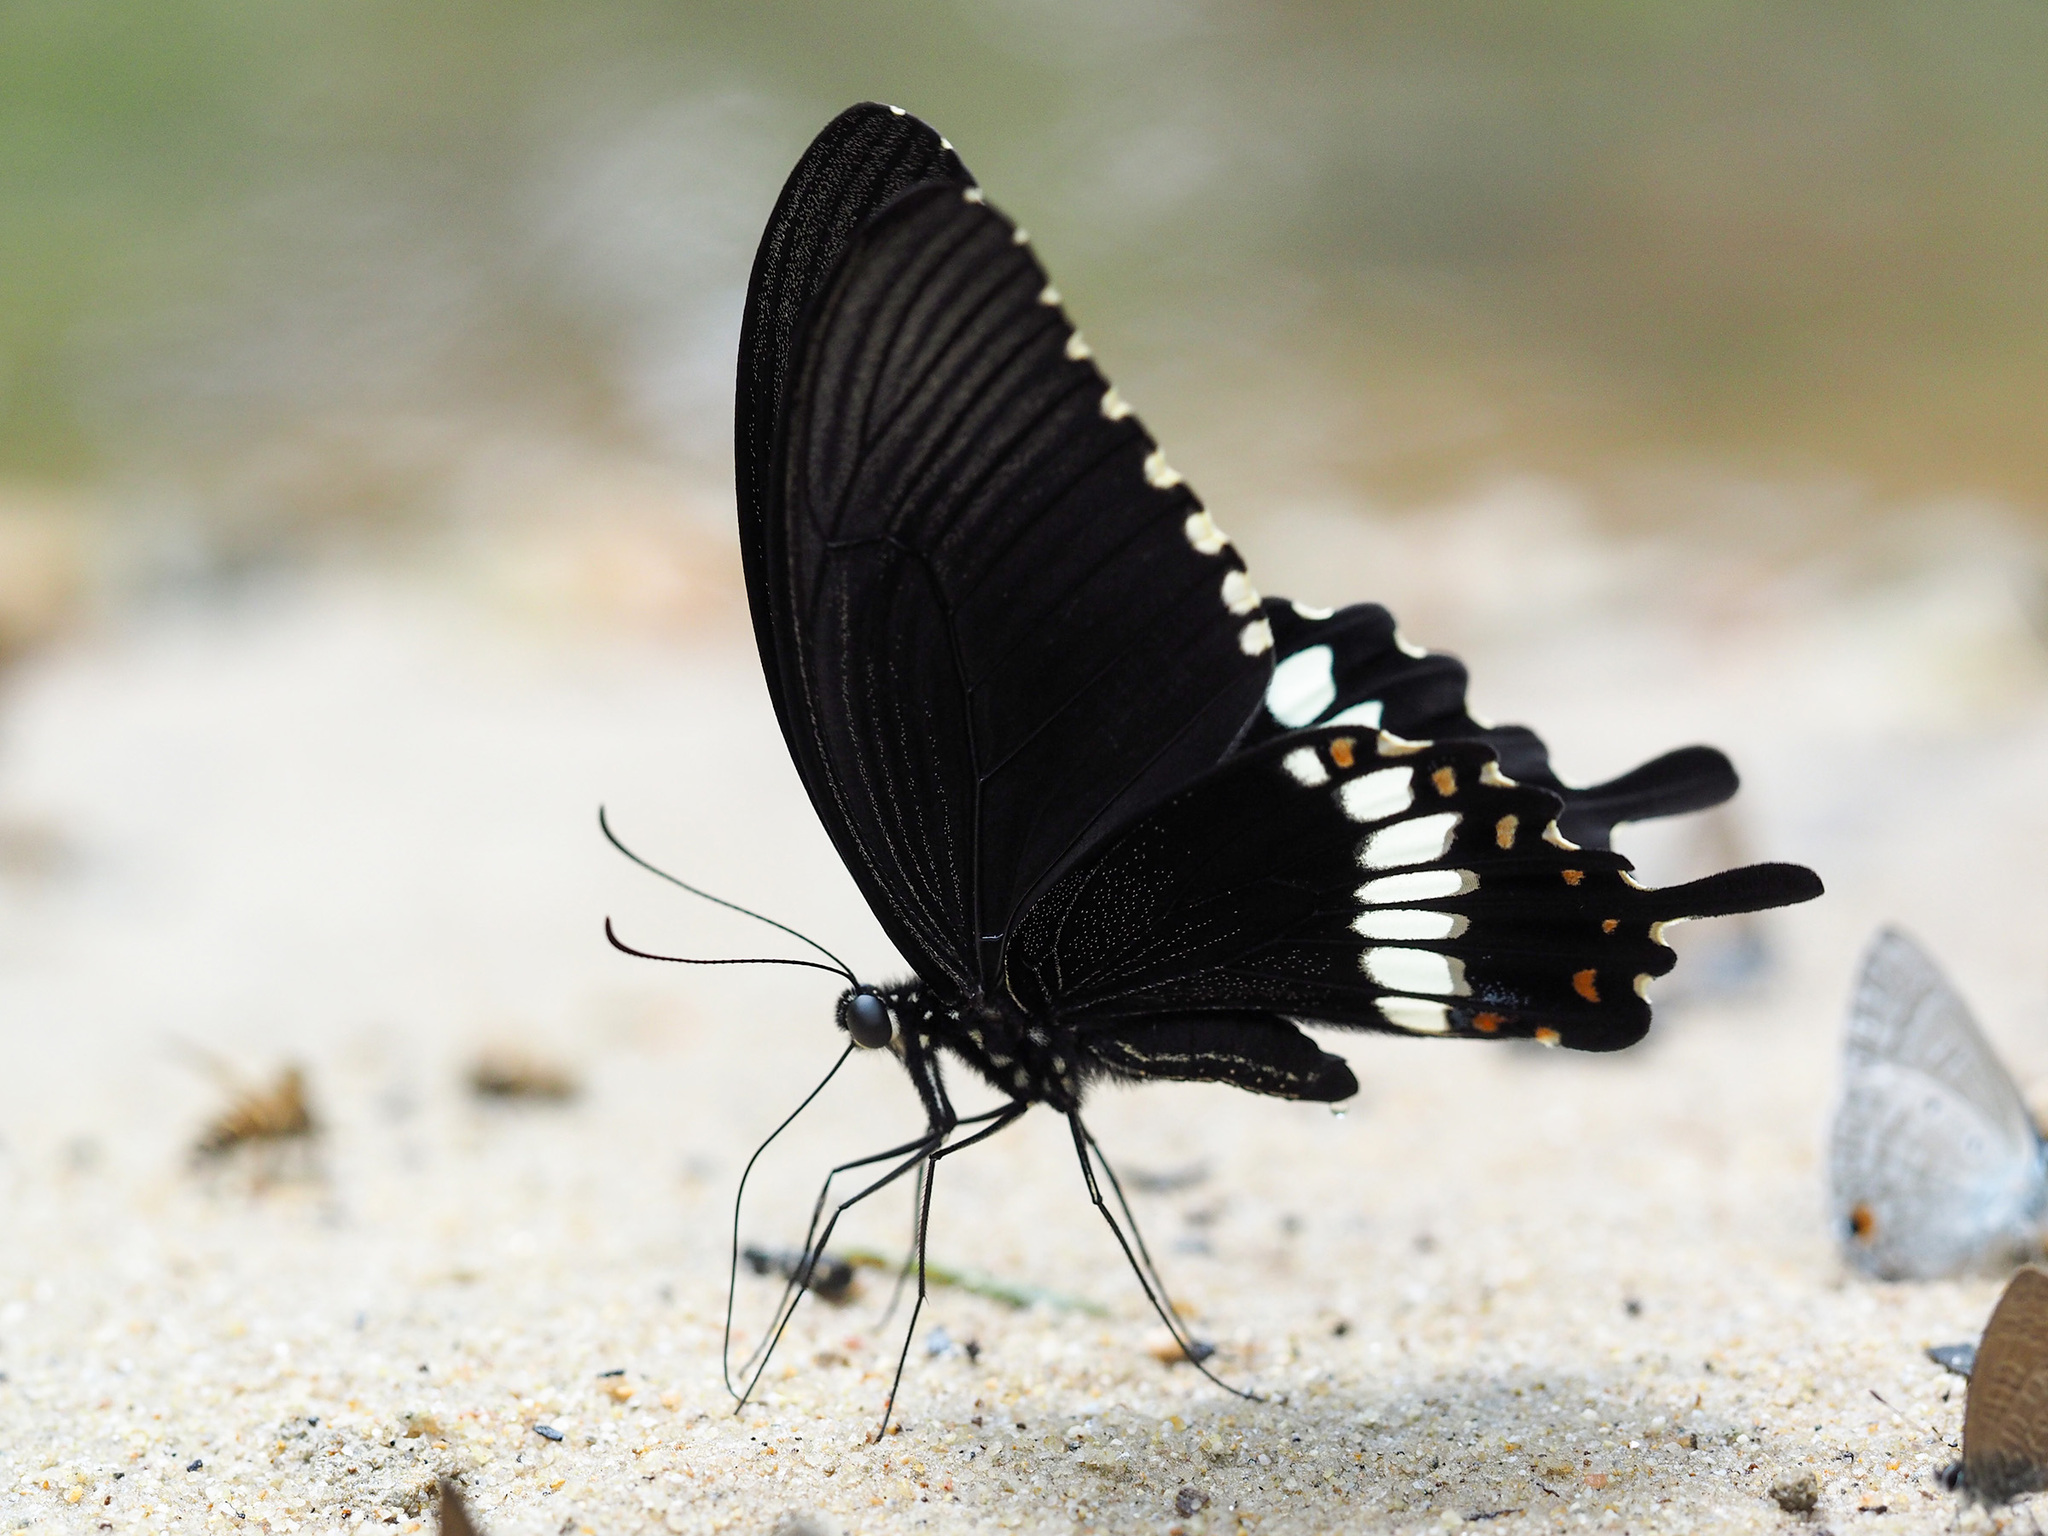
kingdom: Animalia
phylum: Arthropoda
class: Insecta
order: Lepidoptera
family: Papilionidae
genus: Papilio
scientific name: Papilio polytes
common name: Common mormon
